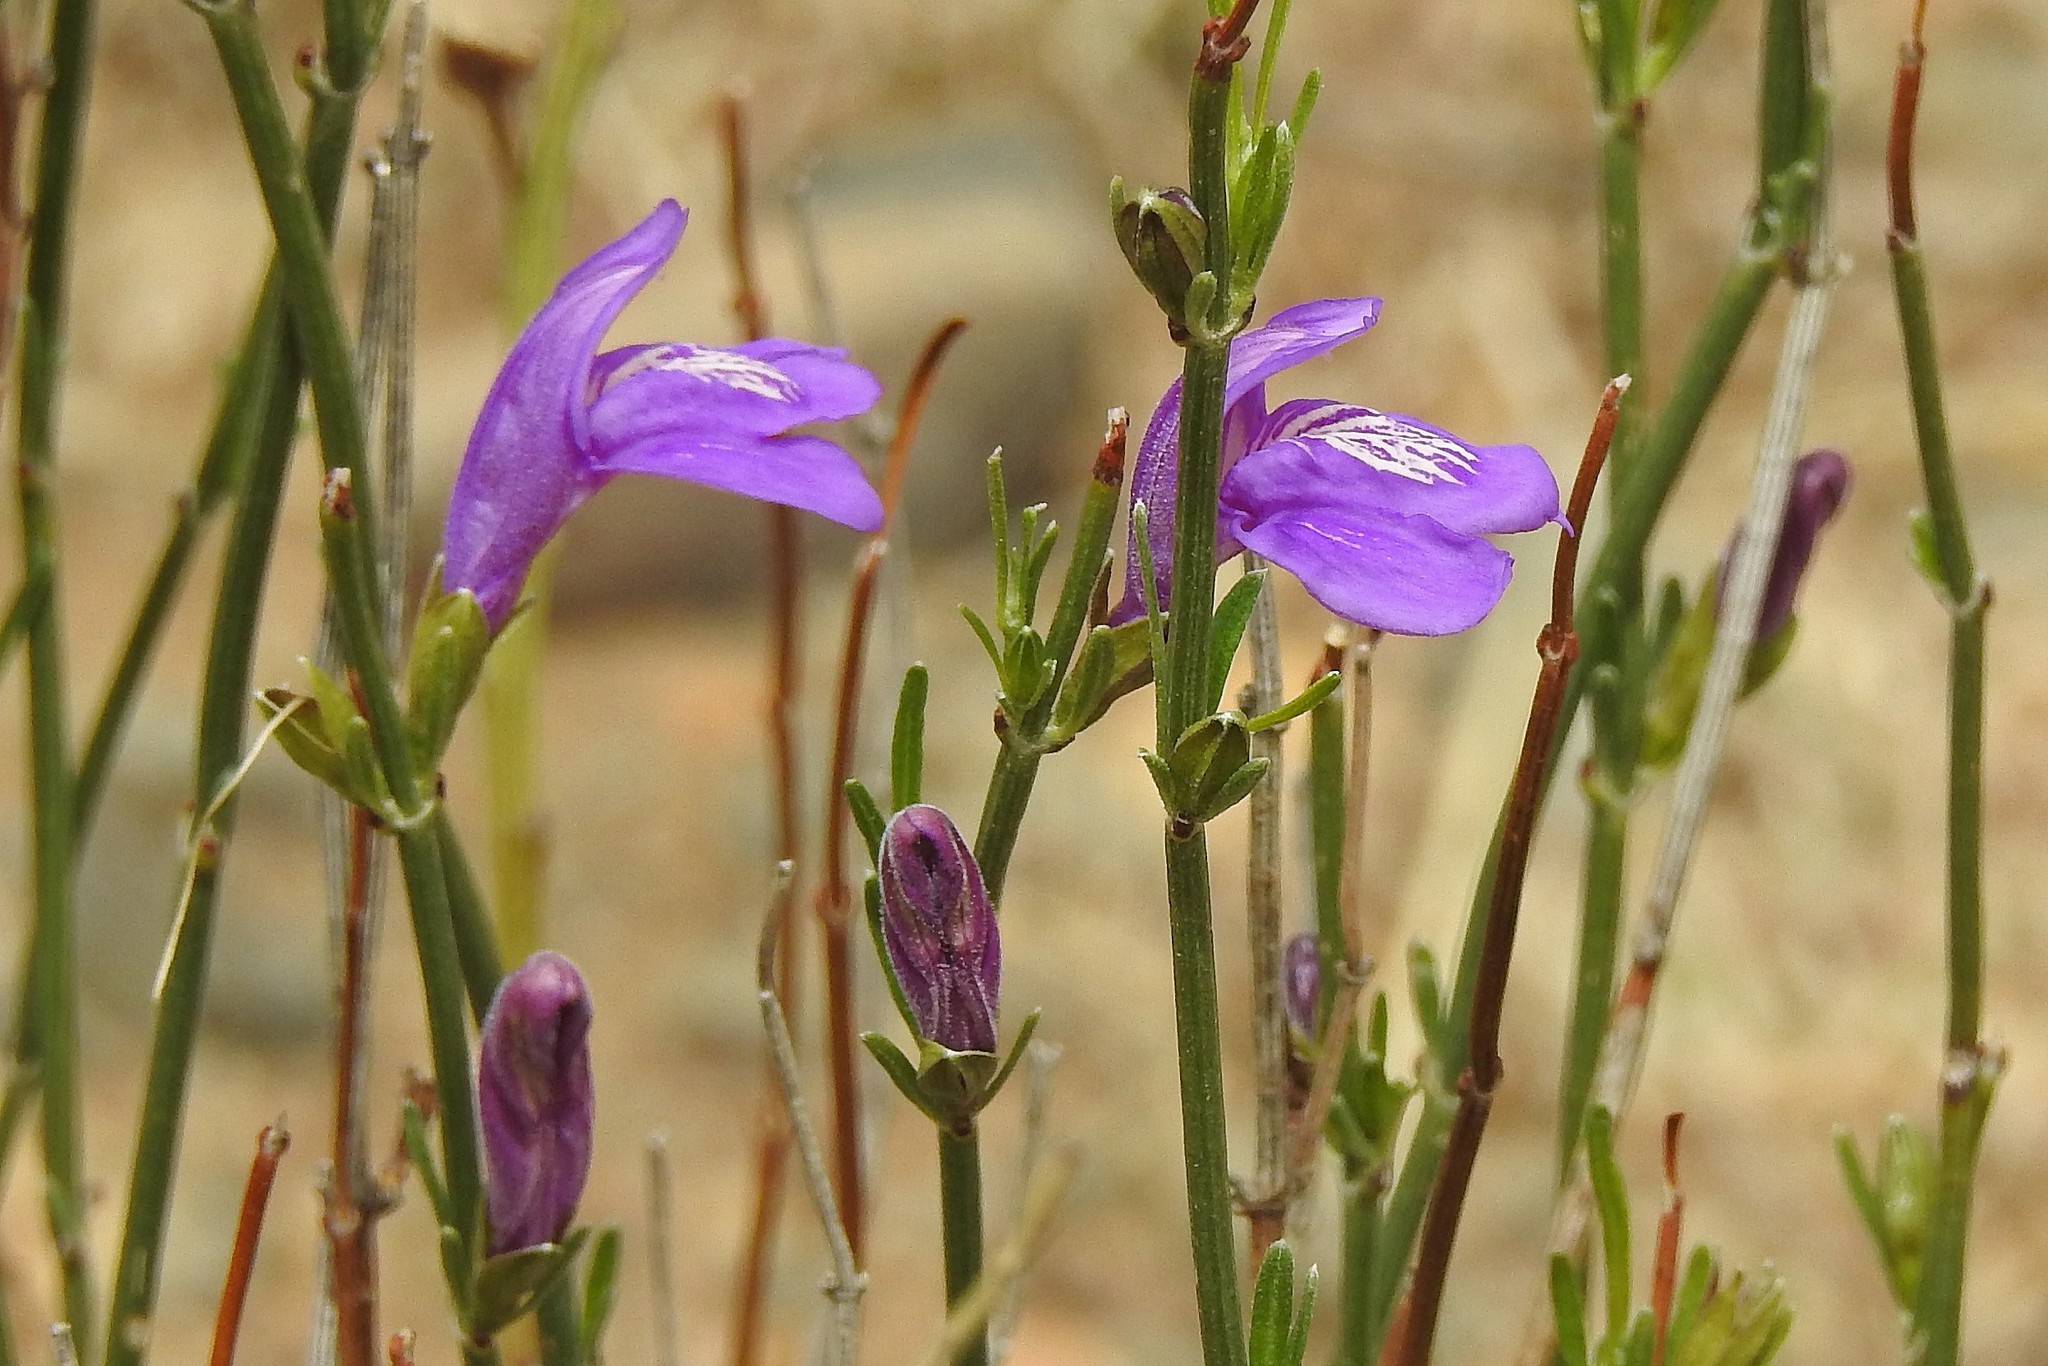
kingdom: Plantae
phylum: Tracheophyta
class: Magnoliopsida
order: Lamiales
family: Acanthaceae
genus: Justicia
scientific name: Justicia axillaris
